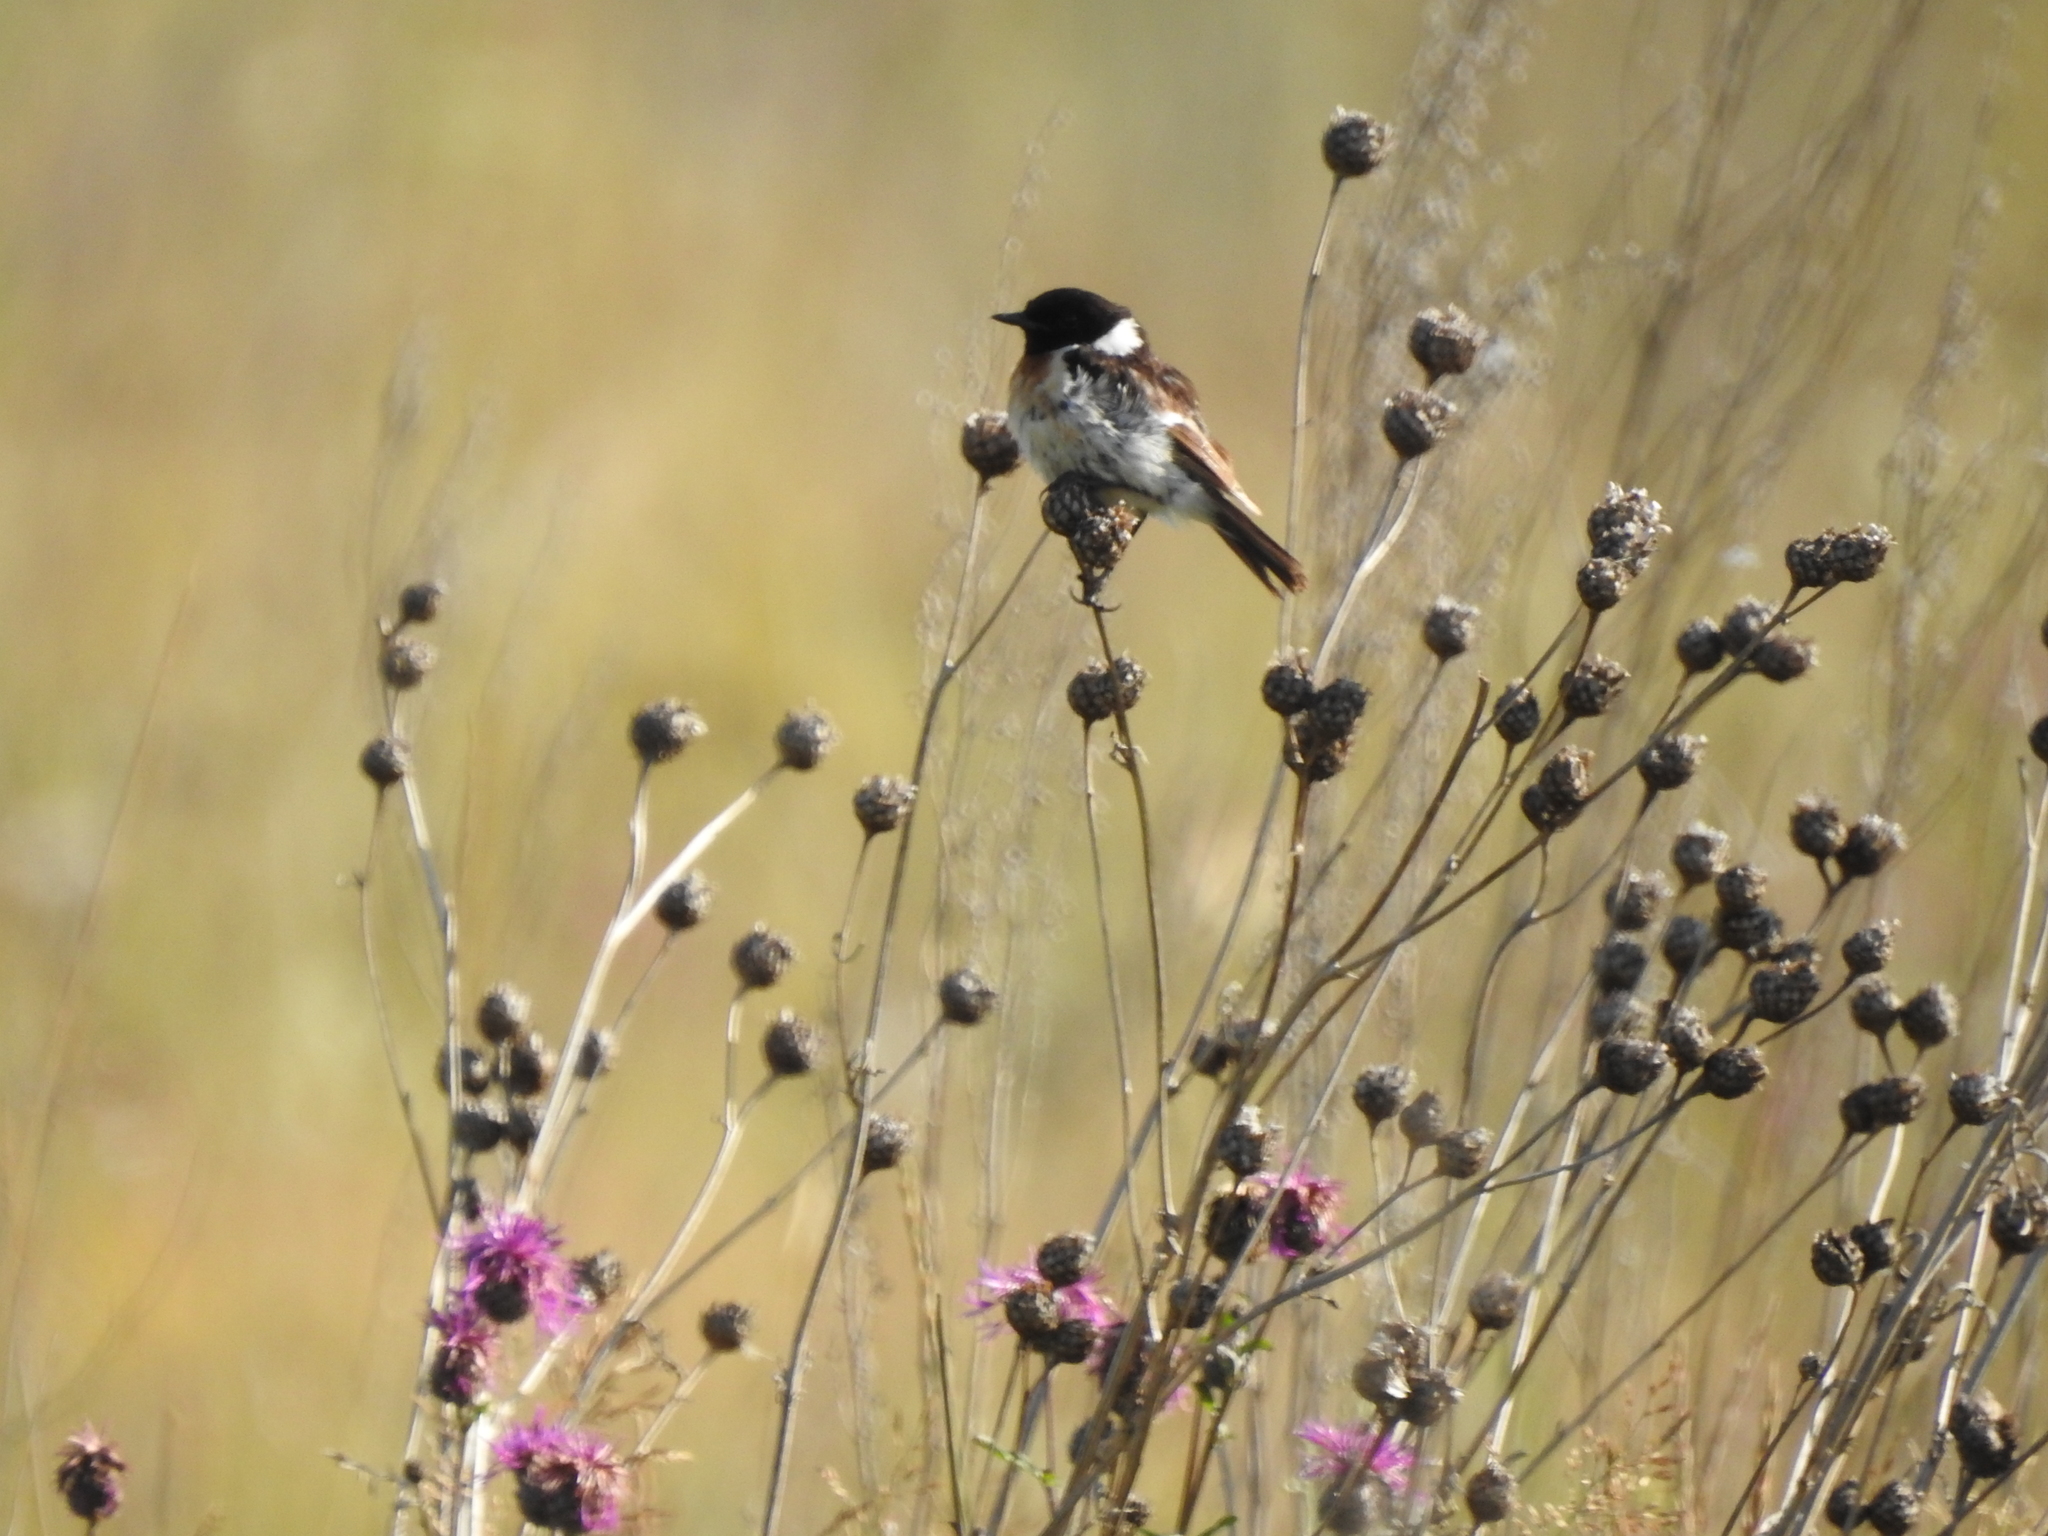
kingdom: Animalia
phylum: Chordata
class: Aves
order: Passeriformes
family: Muscicapidae
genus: Saxicola
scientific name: Saxicola maurus
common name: Siberian stonechat
